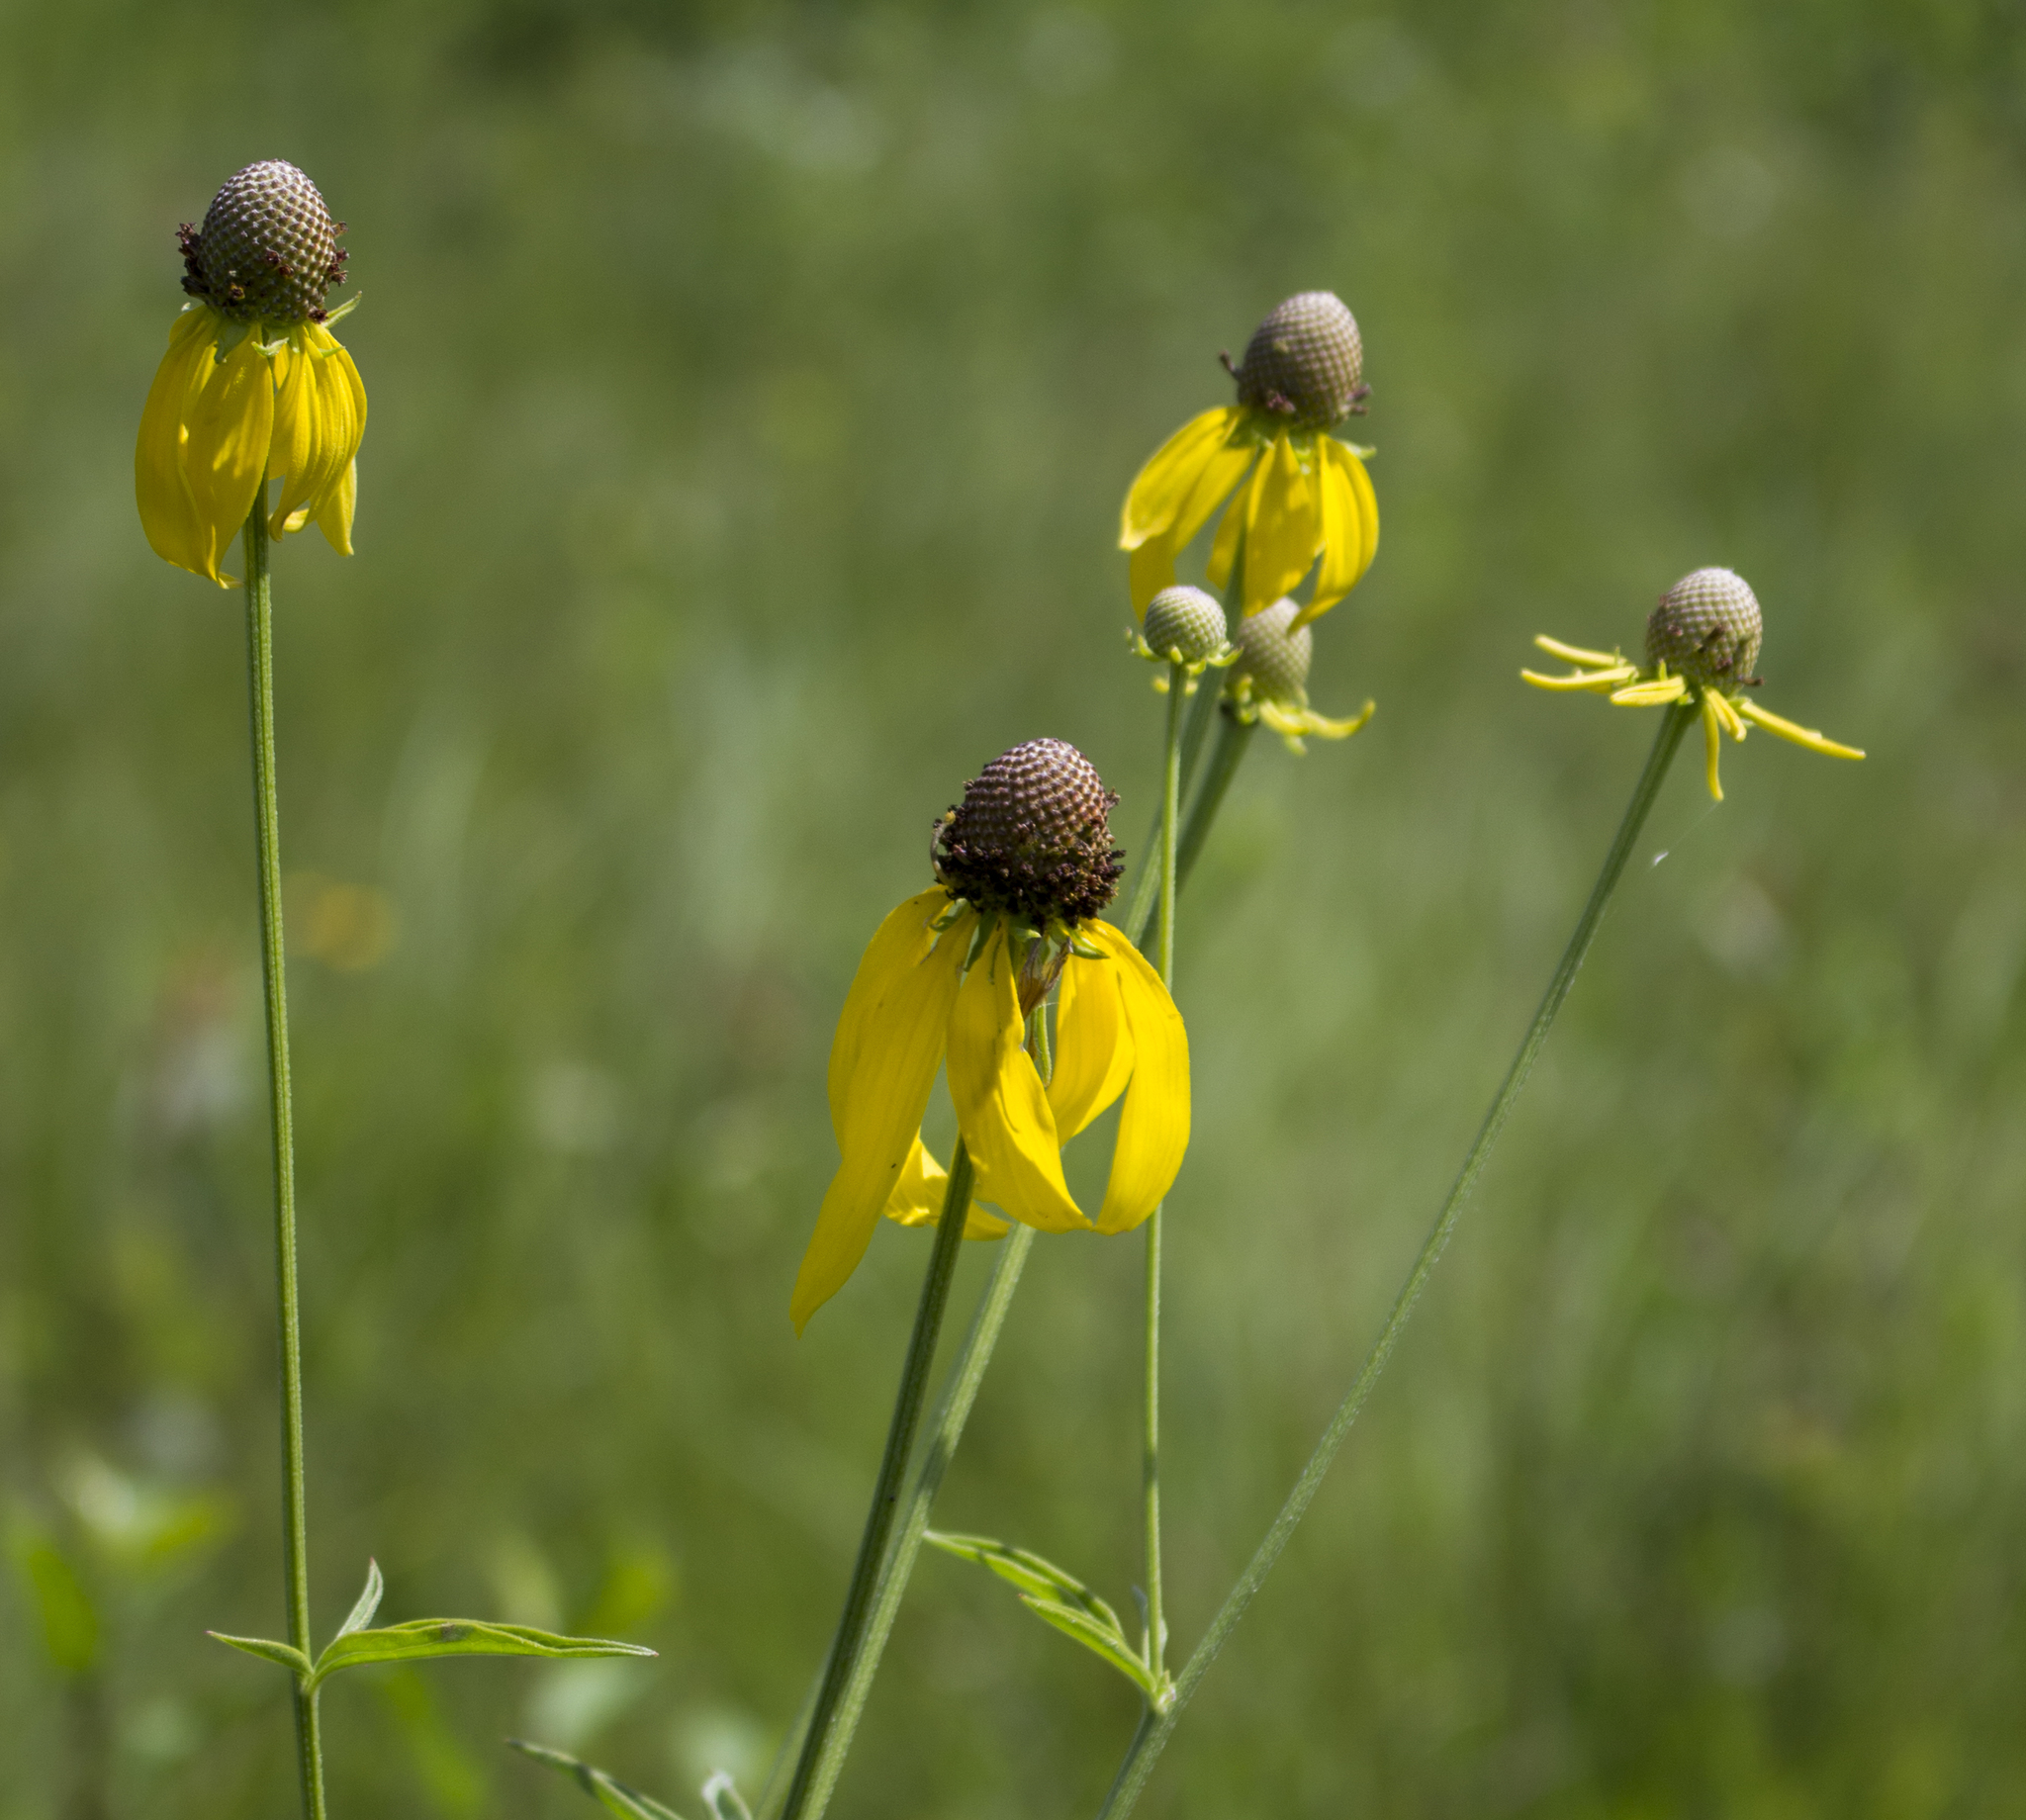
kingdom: Plantae
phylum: Tracheophyta
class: Magnoliopsida
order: Asterales
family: Asteraceae
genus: Ratibida
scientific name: Ratibida pinnata
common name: Drooping prairie-coneflower
